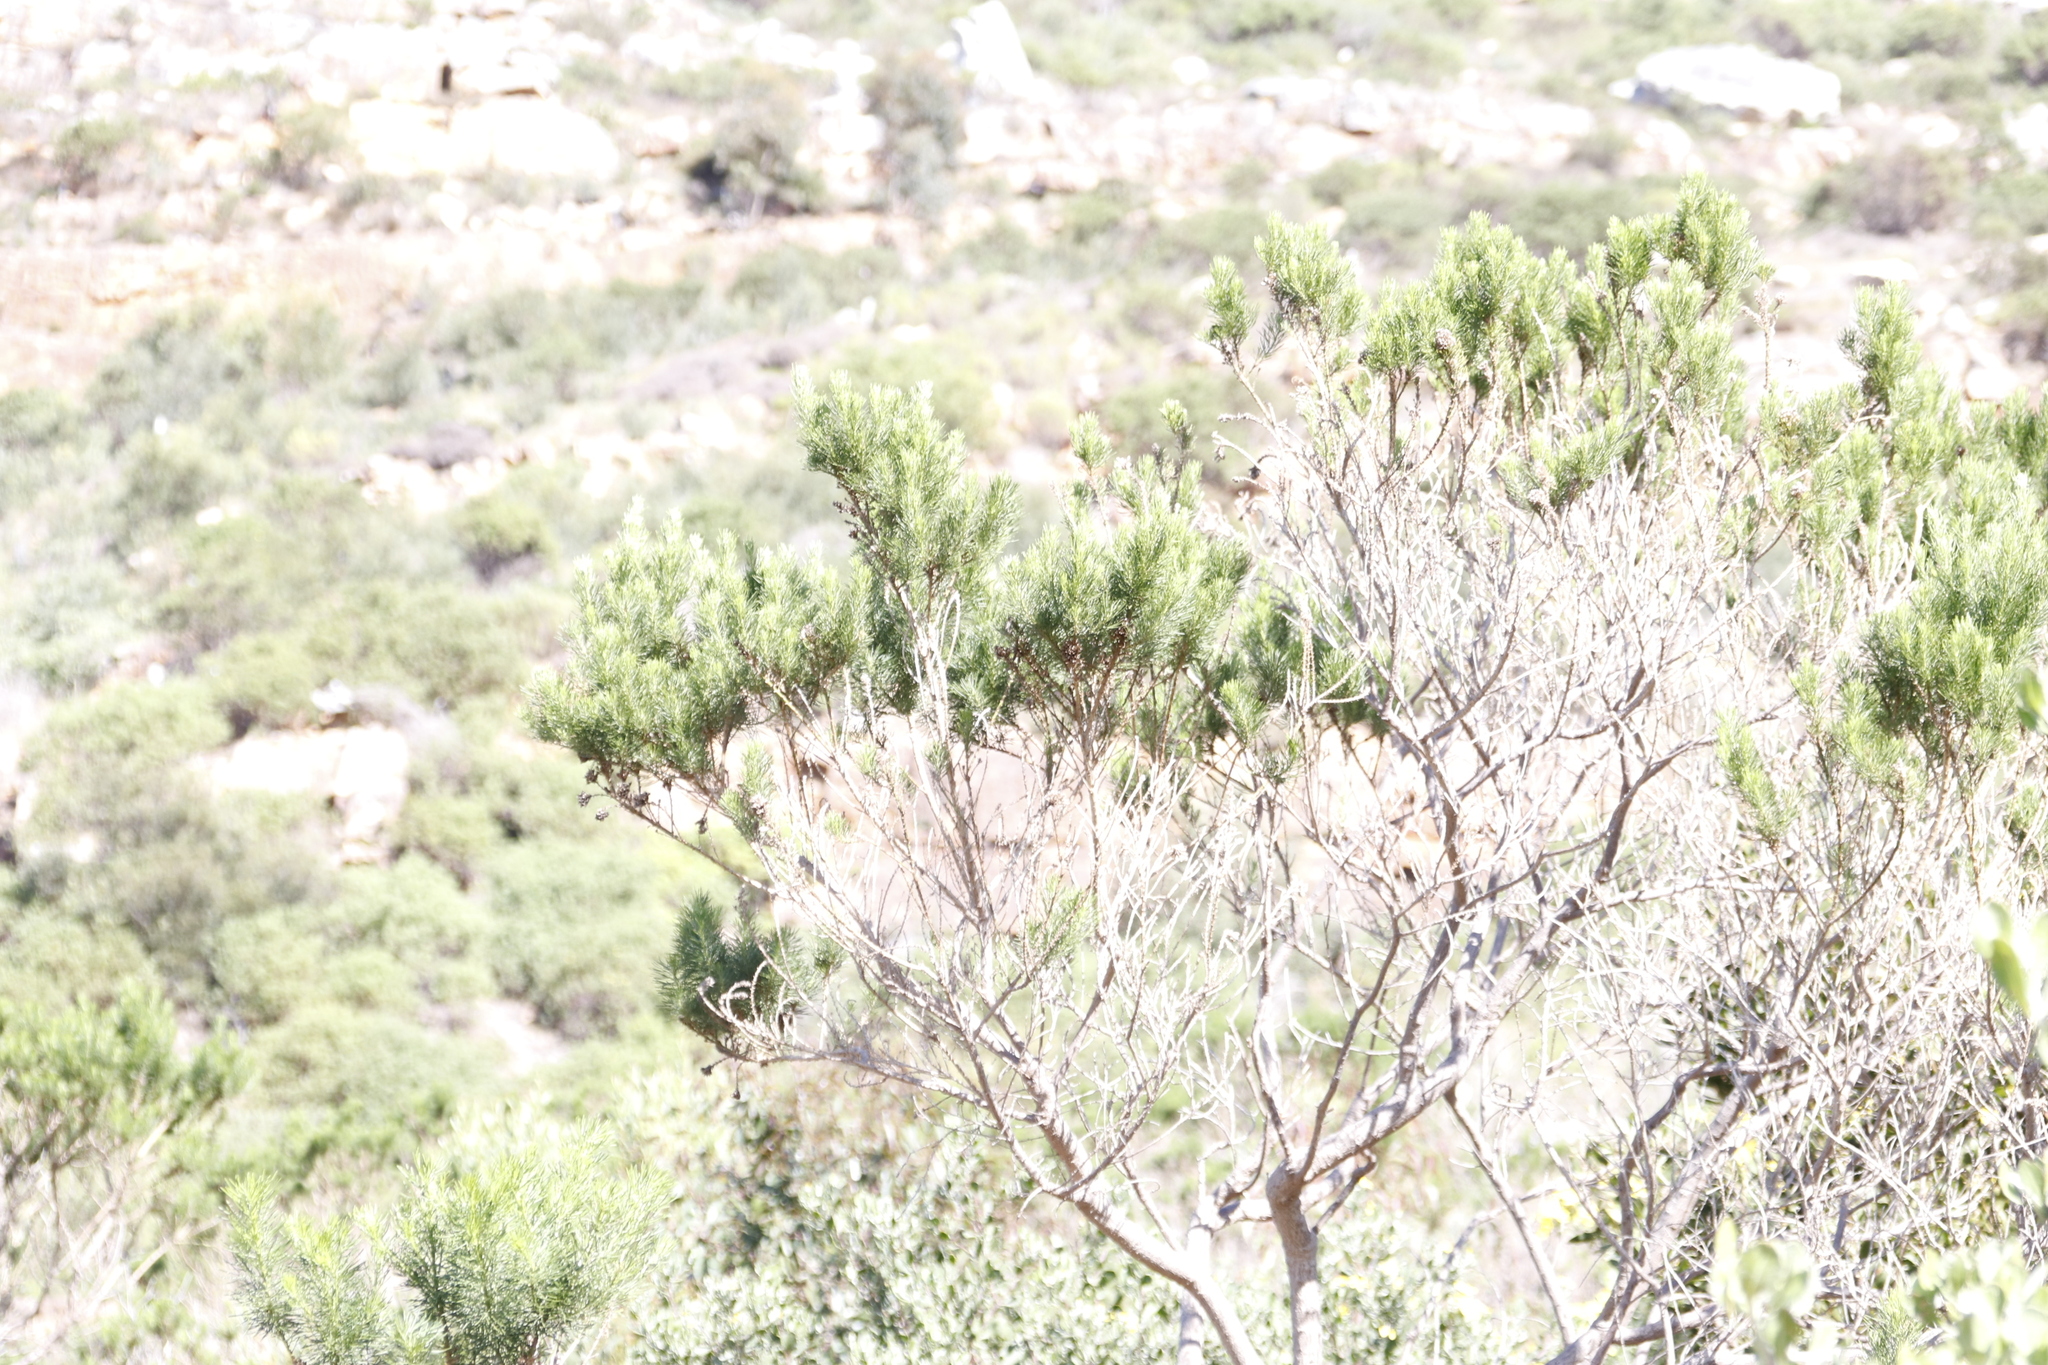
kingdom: Plantae
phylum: Tracheophyta
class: Magnoliopsida
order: Fabales
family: Fabaceae
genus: Psoralea
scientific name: Psoralea pinnata
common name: African scurfpea
